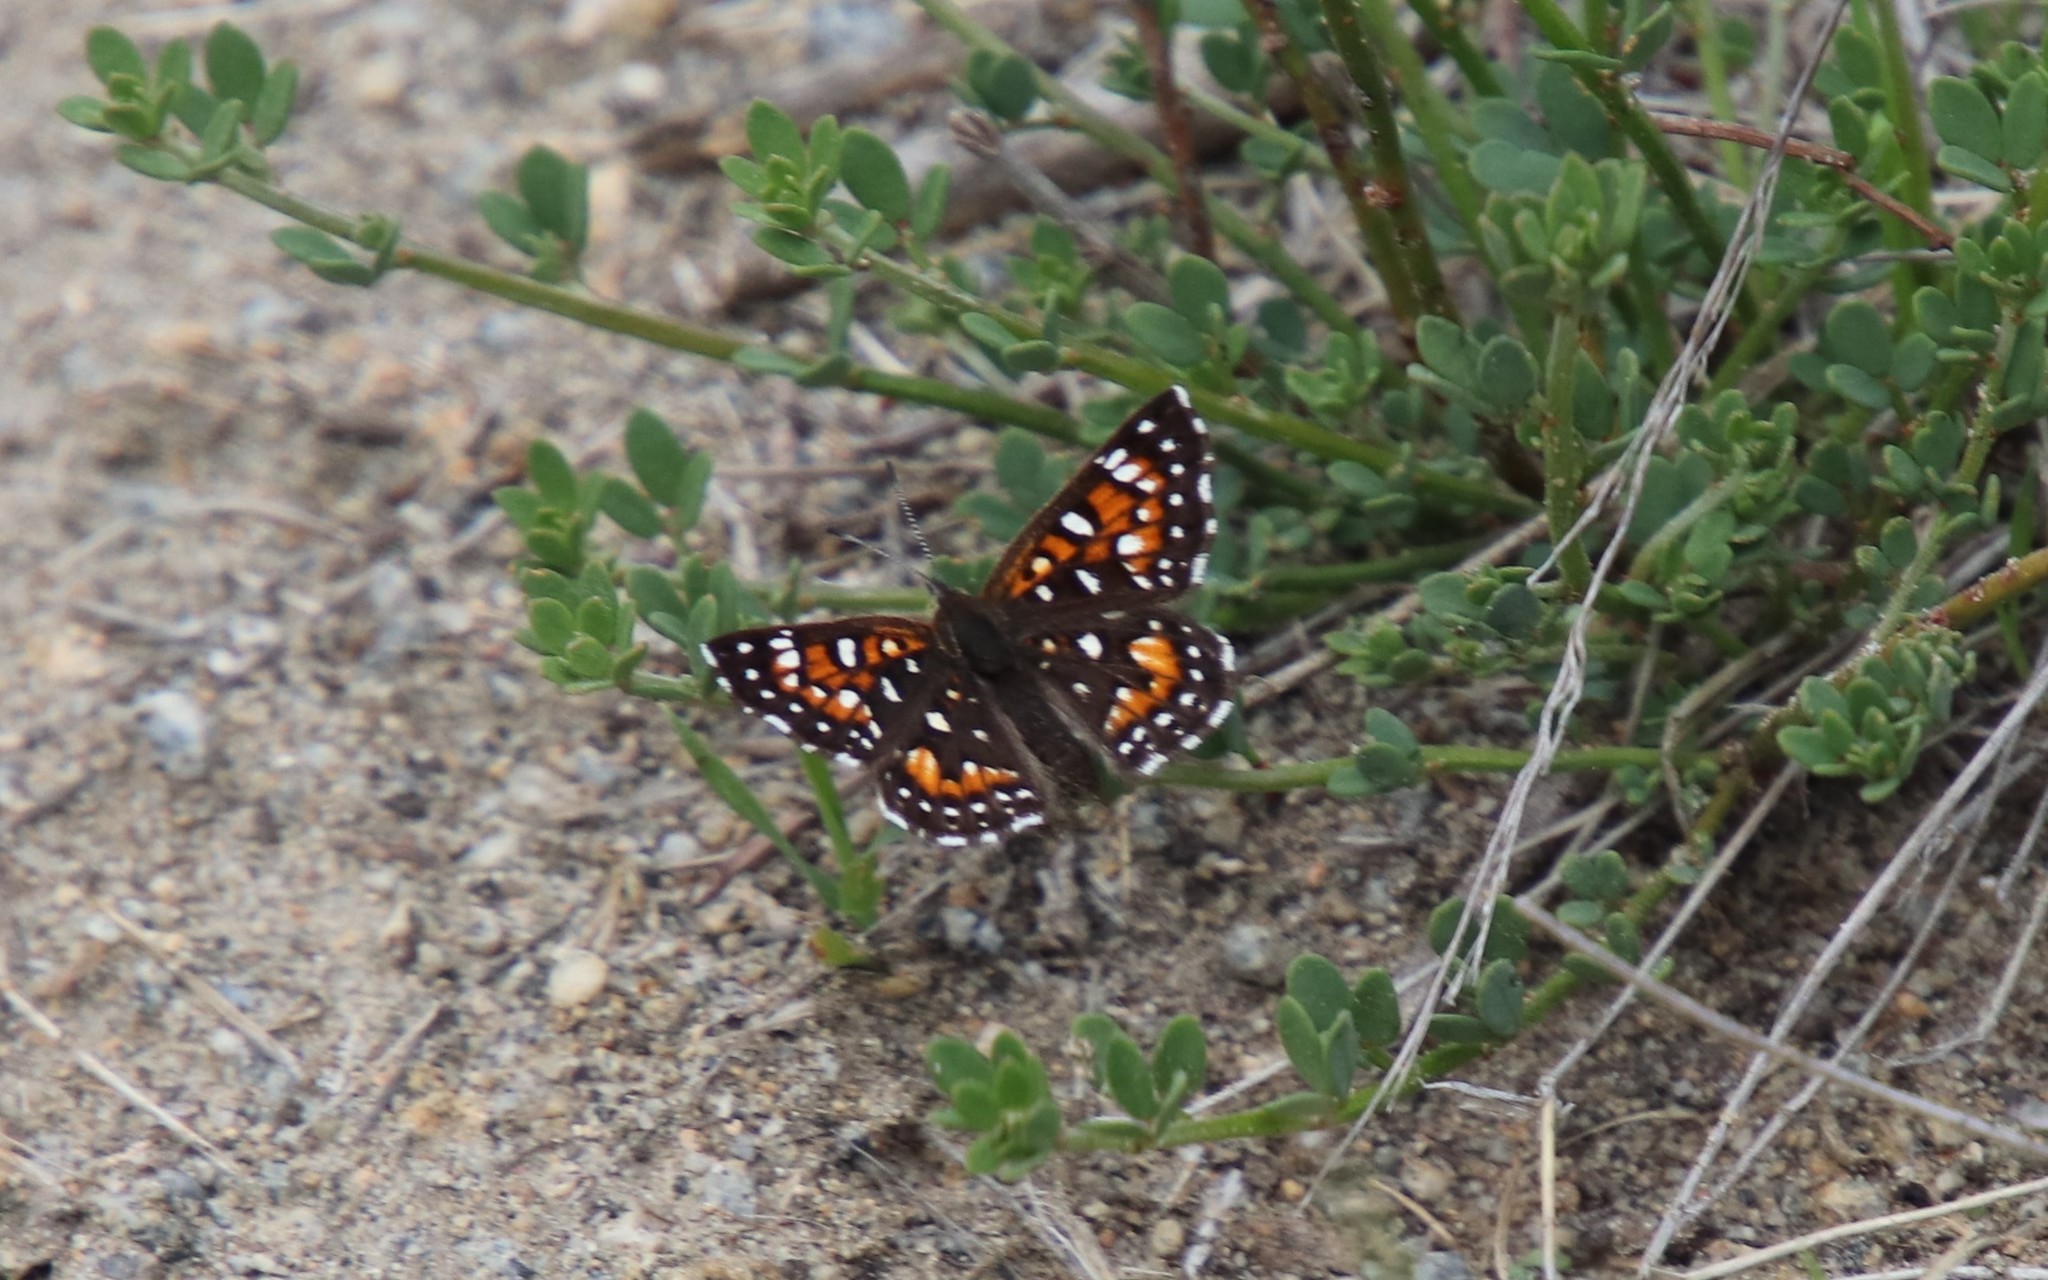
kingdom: Animalia
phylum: Arthropoda
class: Insecta
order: Lepidoptera
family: Riodinidae
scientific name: Riodinidae
